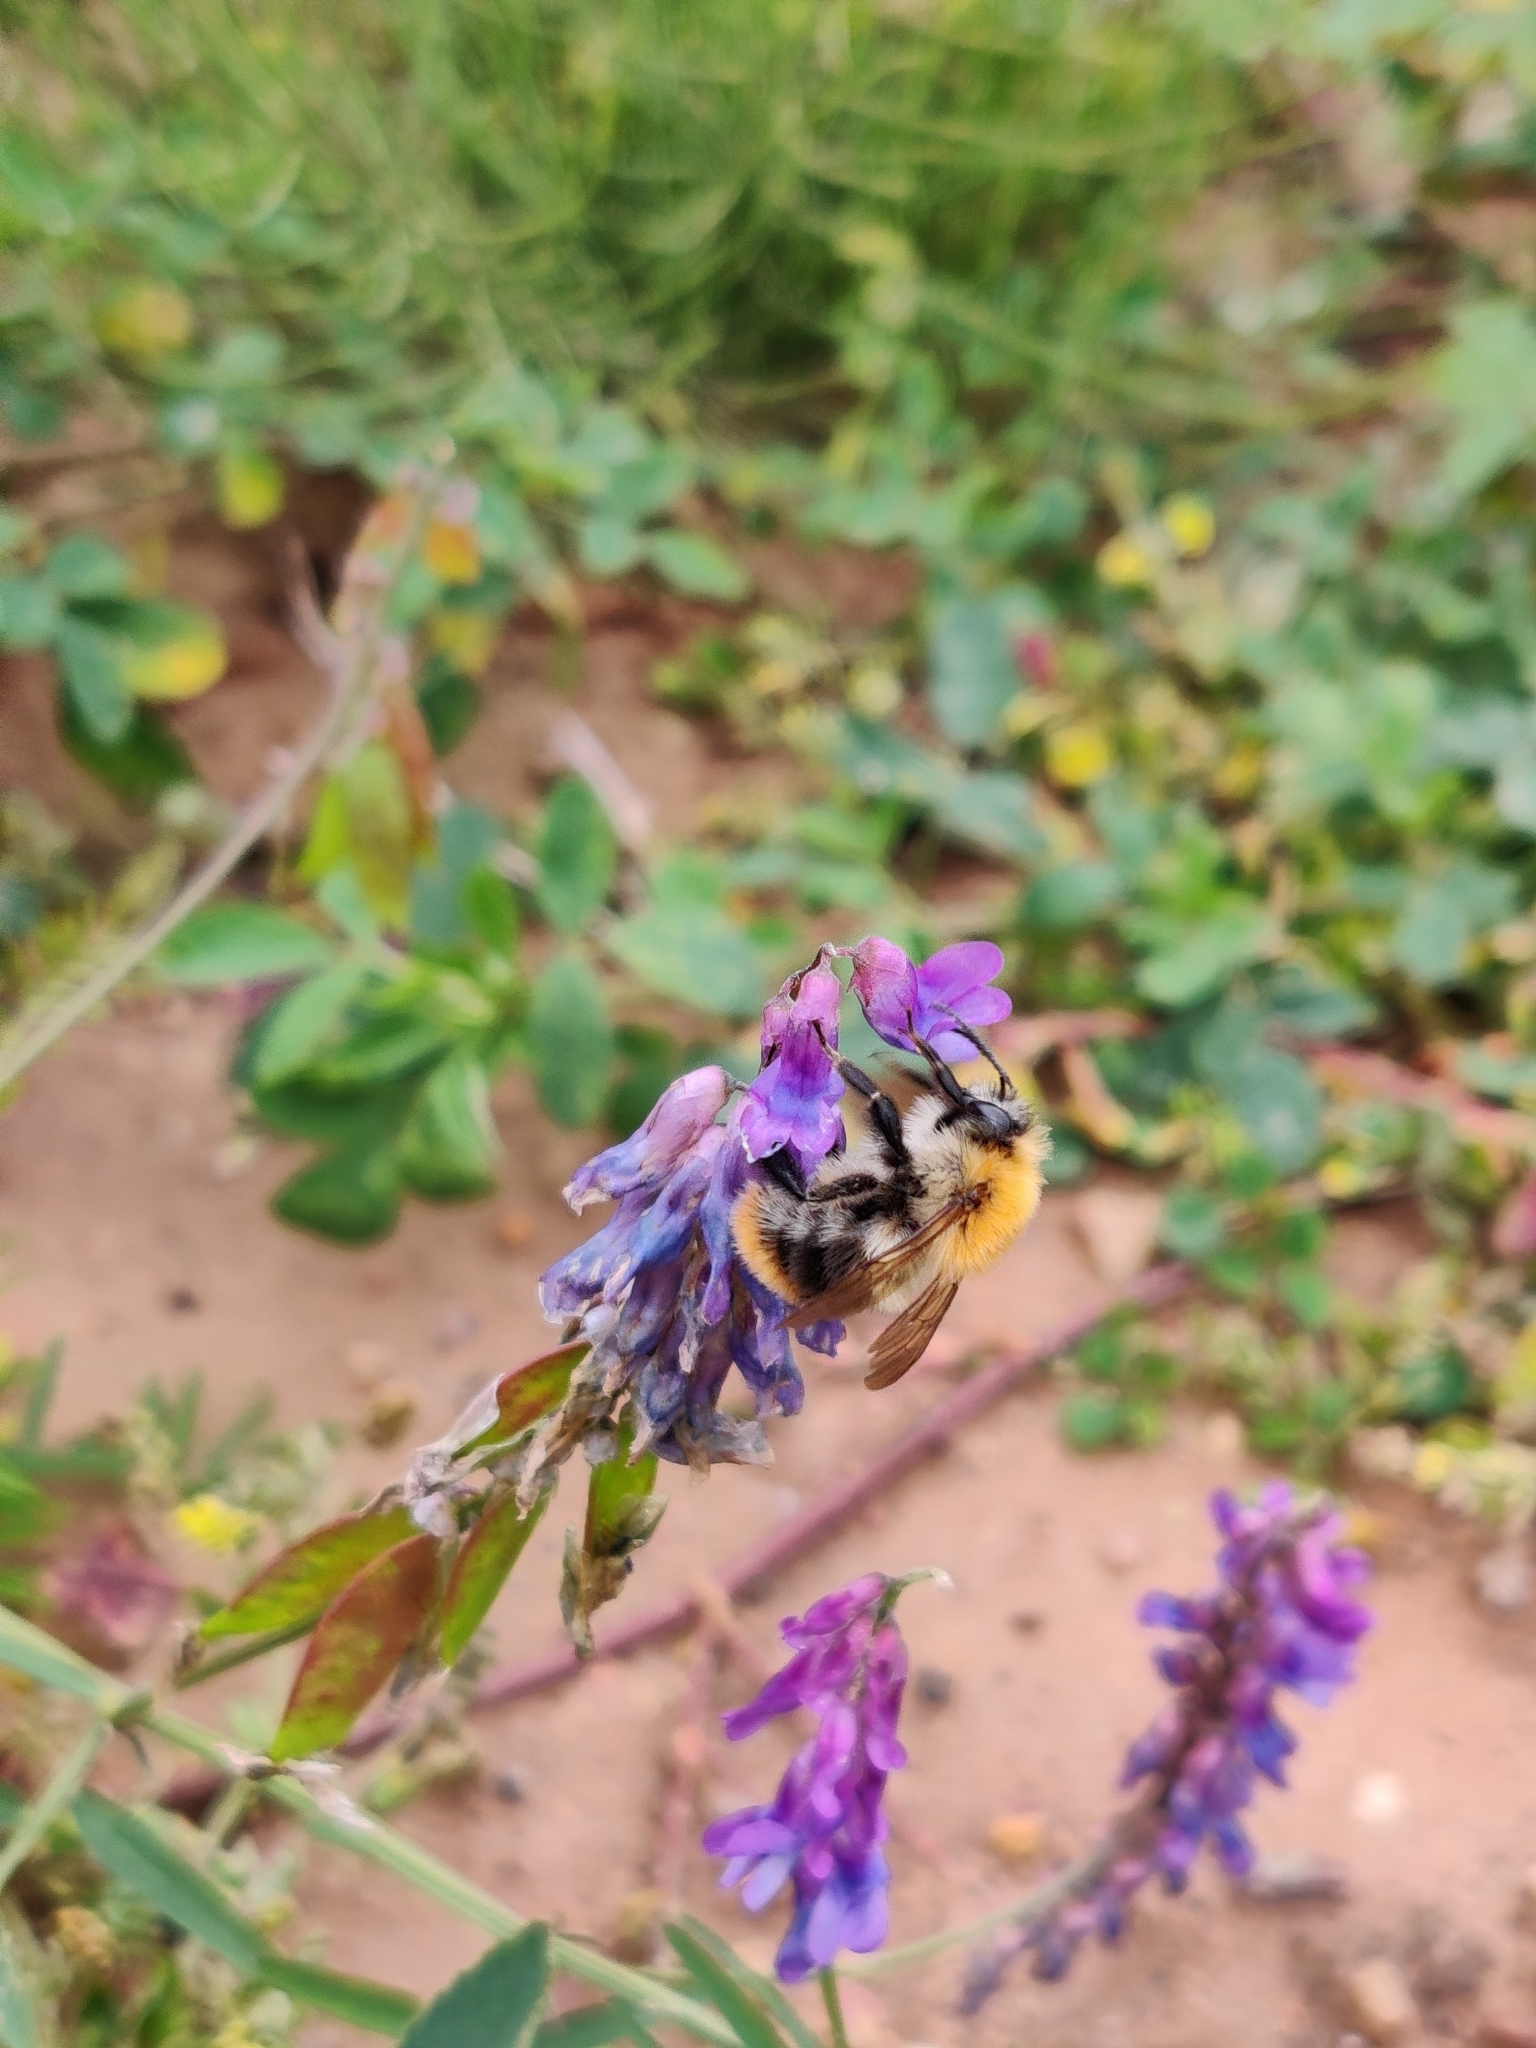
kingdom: Animalia
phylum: Arthropoda
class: Insecta
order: Hymenoptera
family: Apidae
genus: Bombus
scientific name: Bombus pascuorum
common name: Common carder bee
